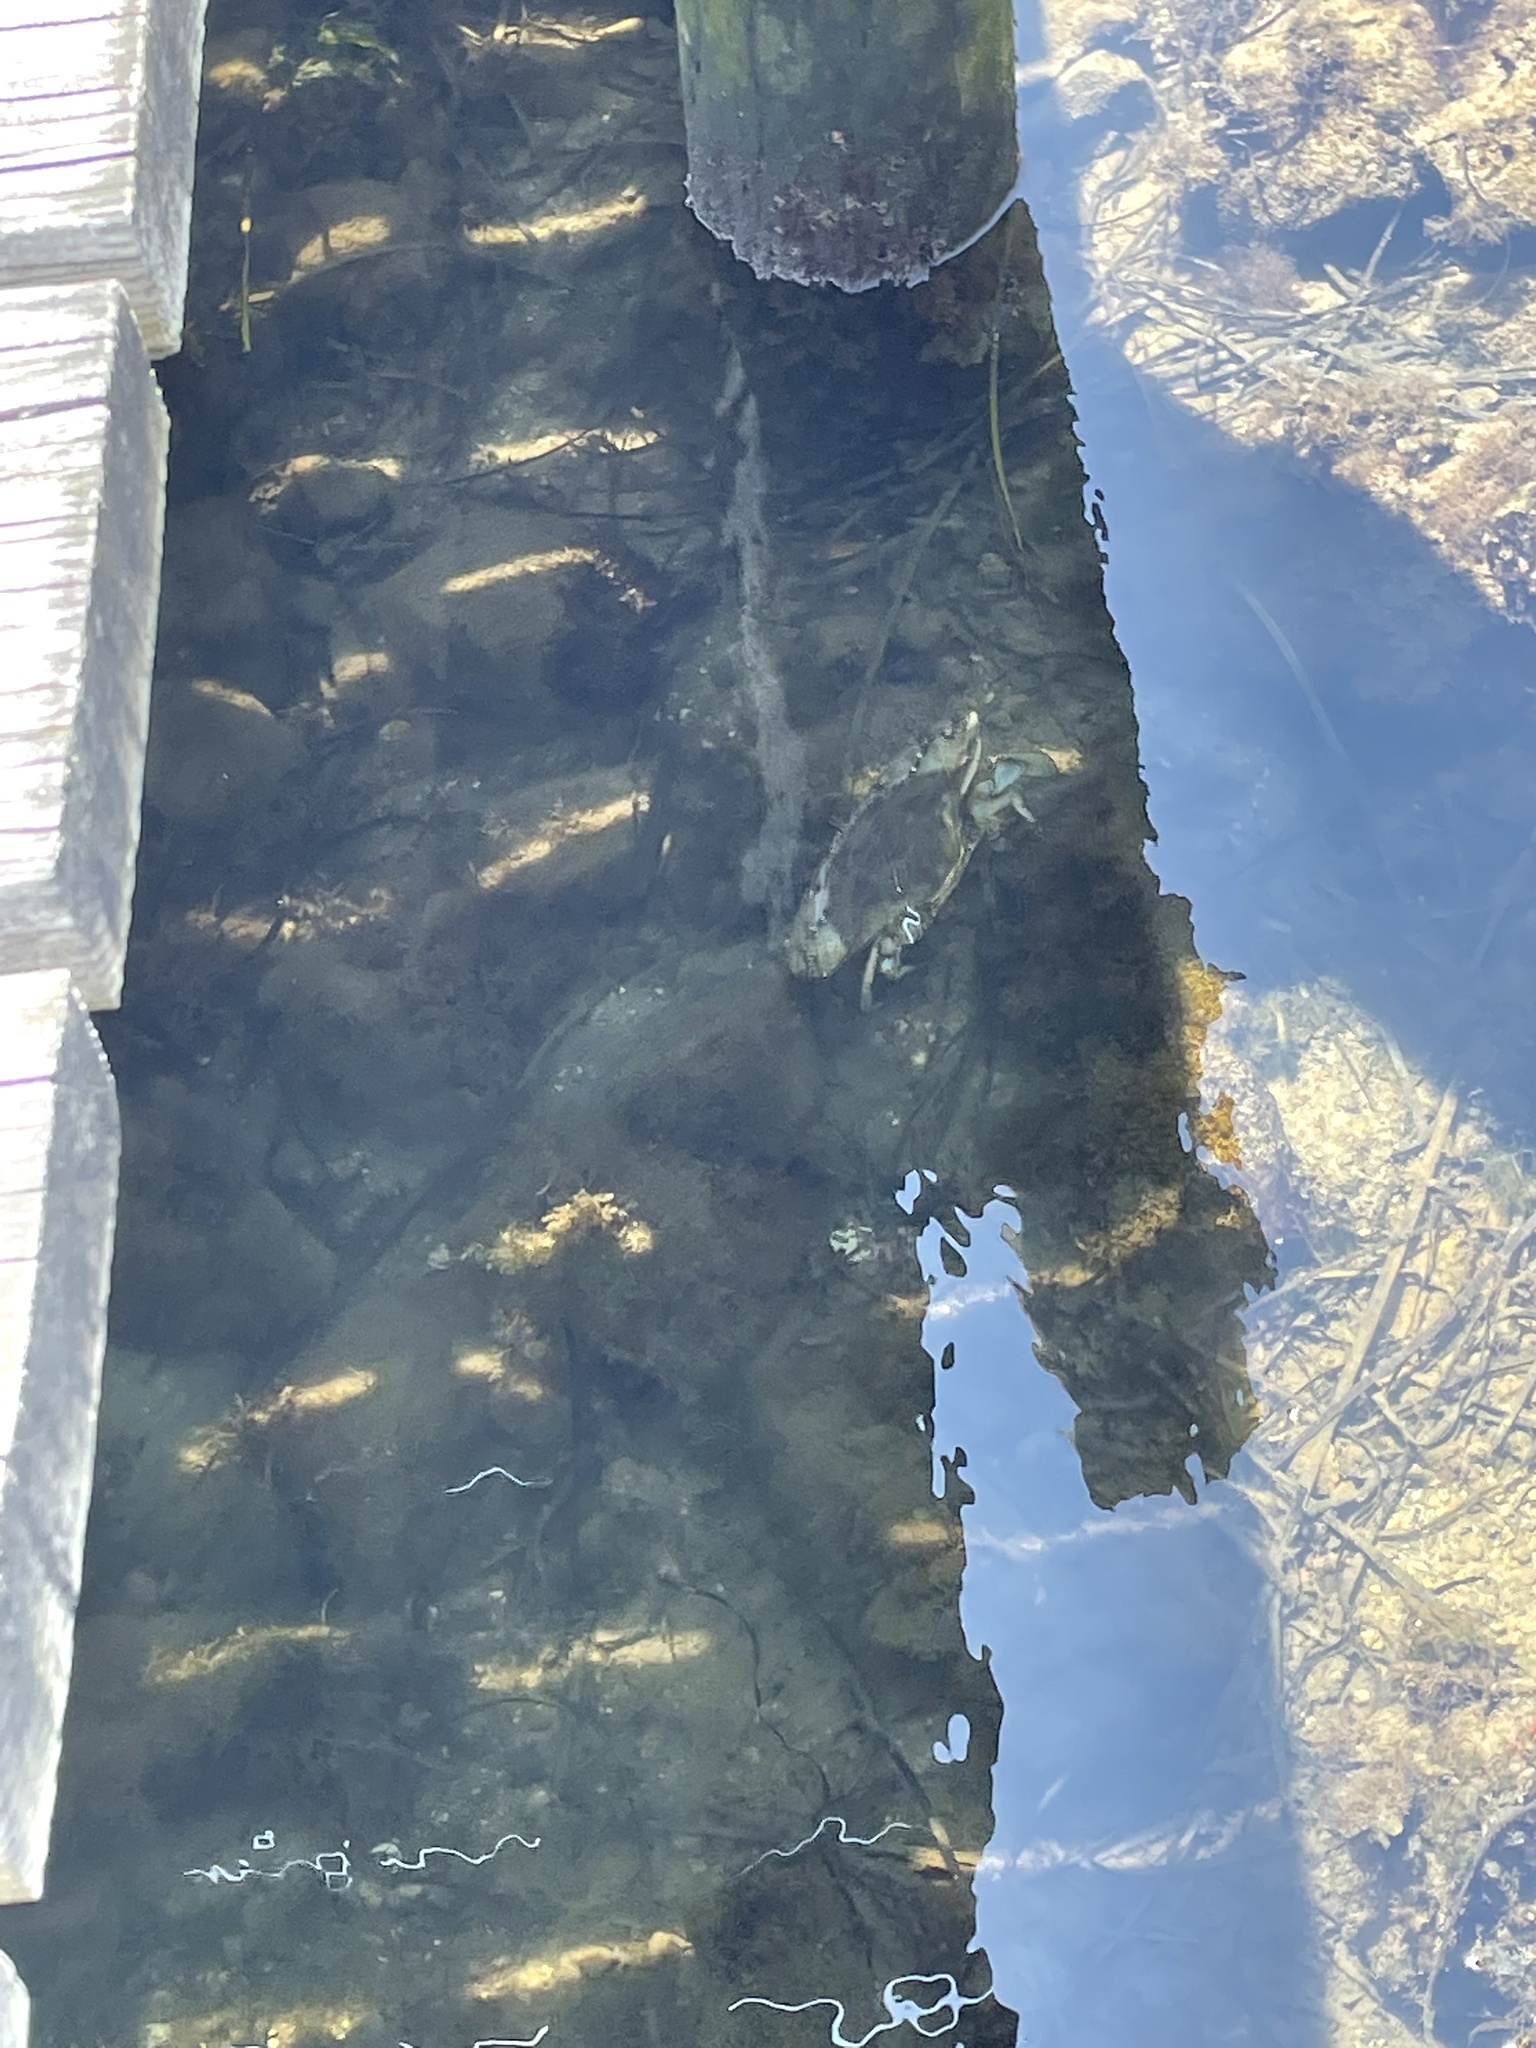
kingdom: Animalia
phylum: Arthropoda
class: Malacostraca
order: Decapoda
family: Portunidae
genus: Callinectes
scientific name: Callinectes sapidus
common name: Blue crab
